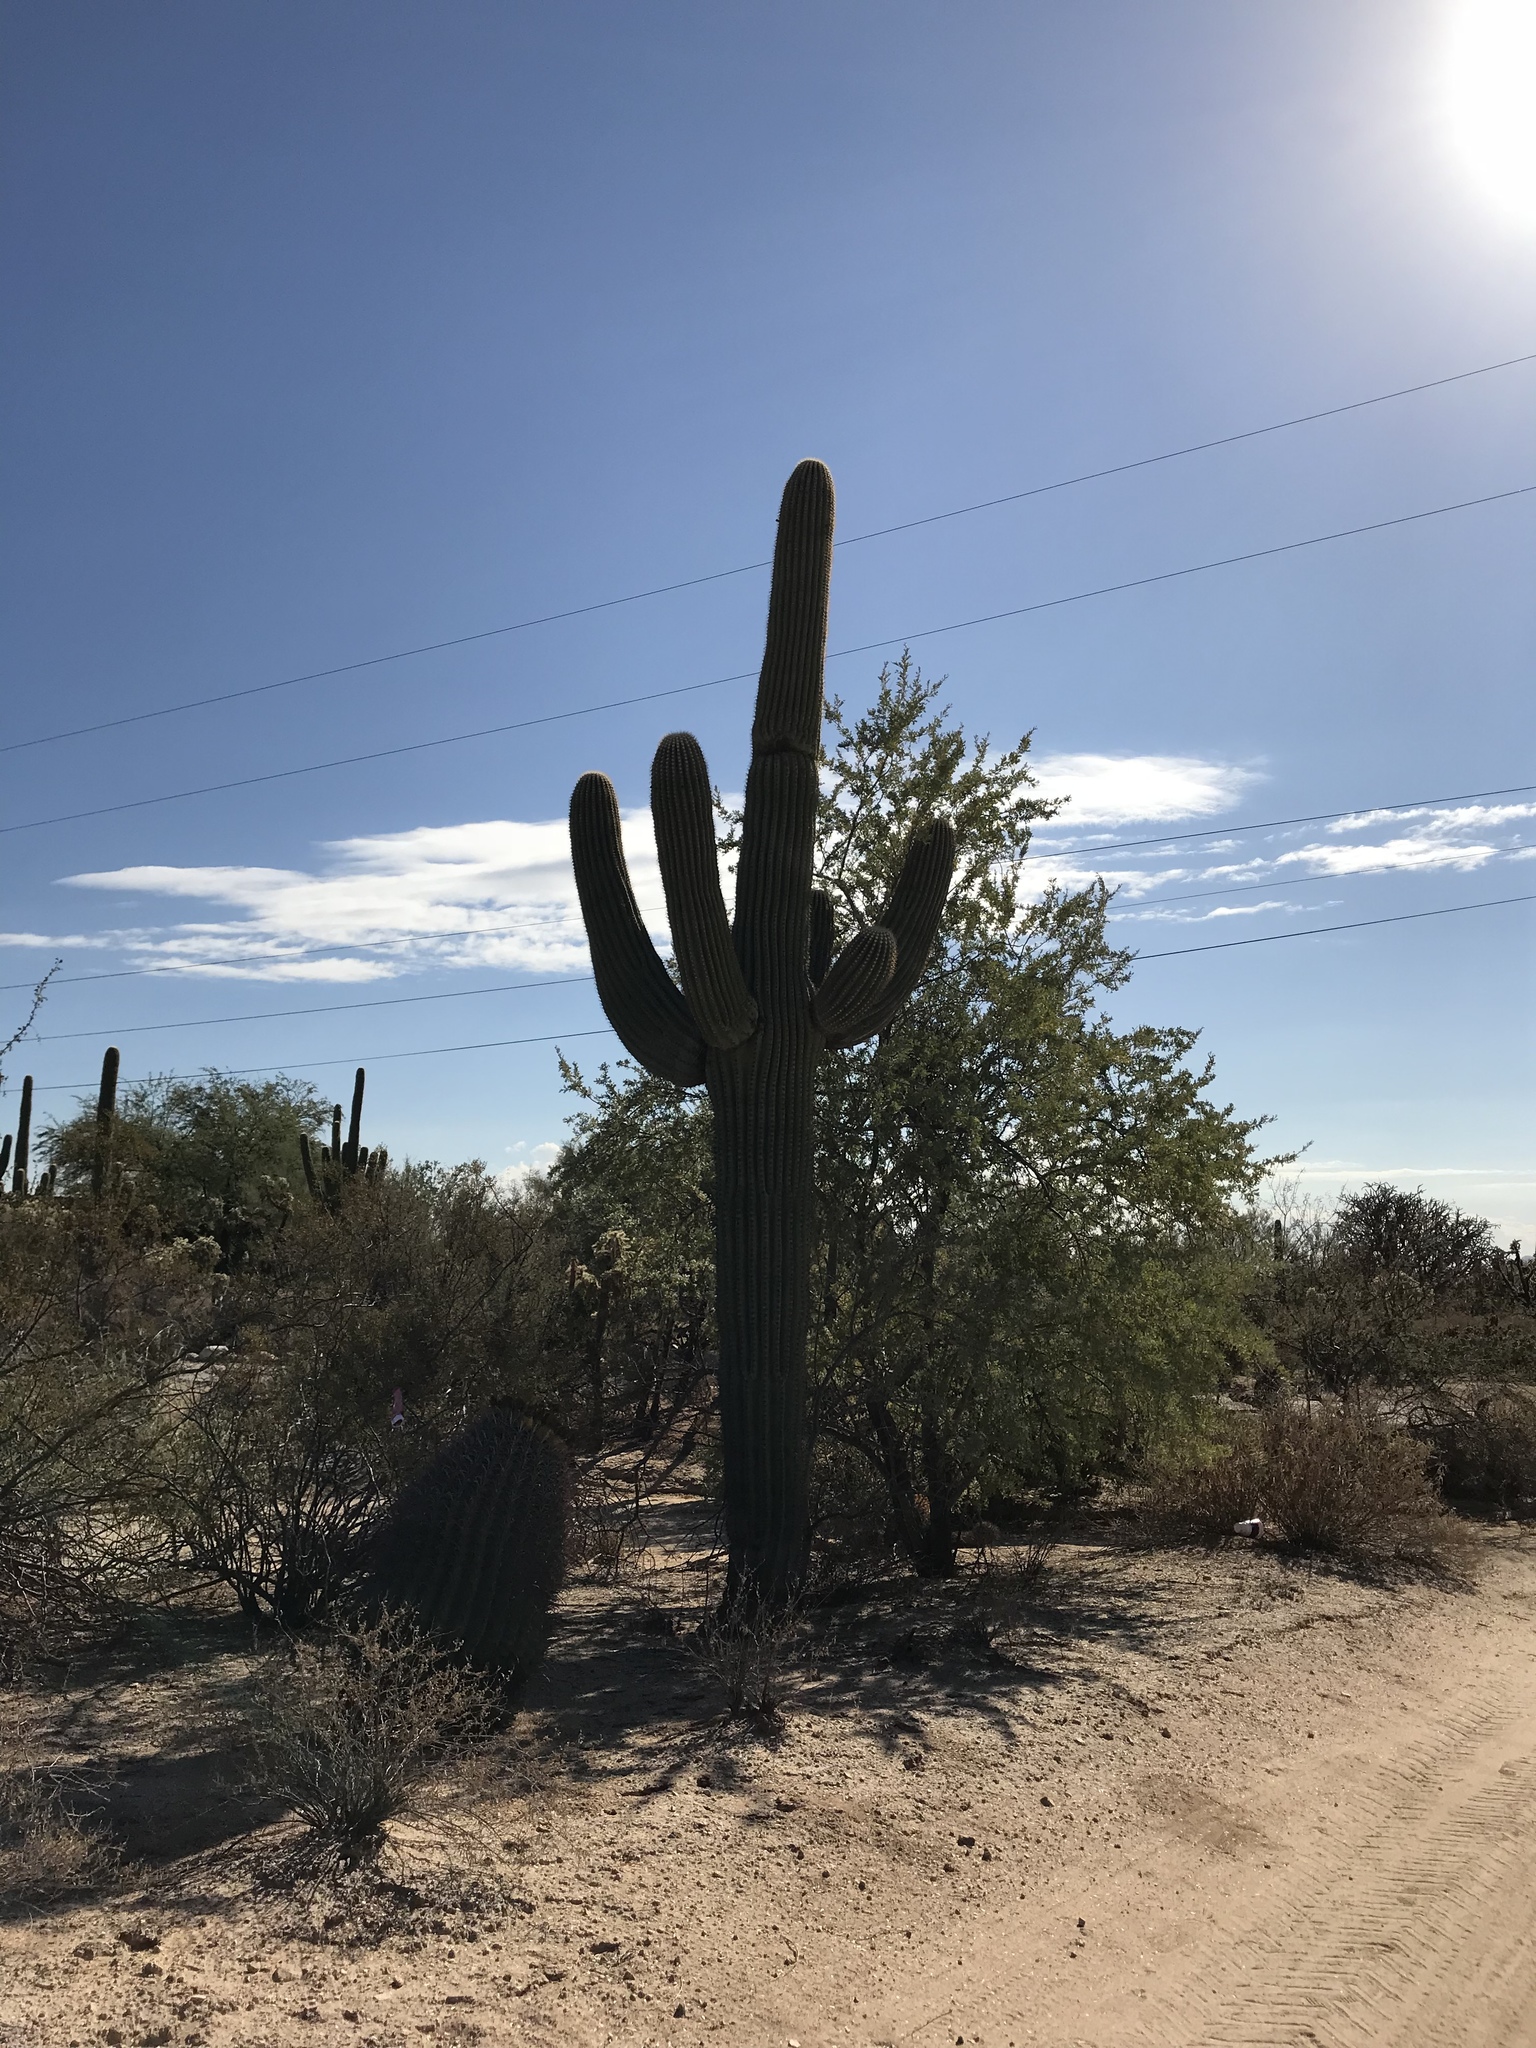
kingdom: Plantae
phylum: Tracheophyta
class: Magnoliopsida
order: Caryophyllales
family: Cactaceae
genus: Carnegiea
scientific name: Carnegiea gigantea
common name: Saguaro
